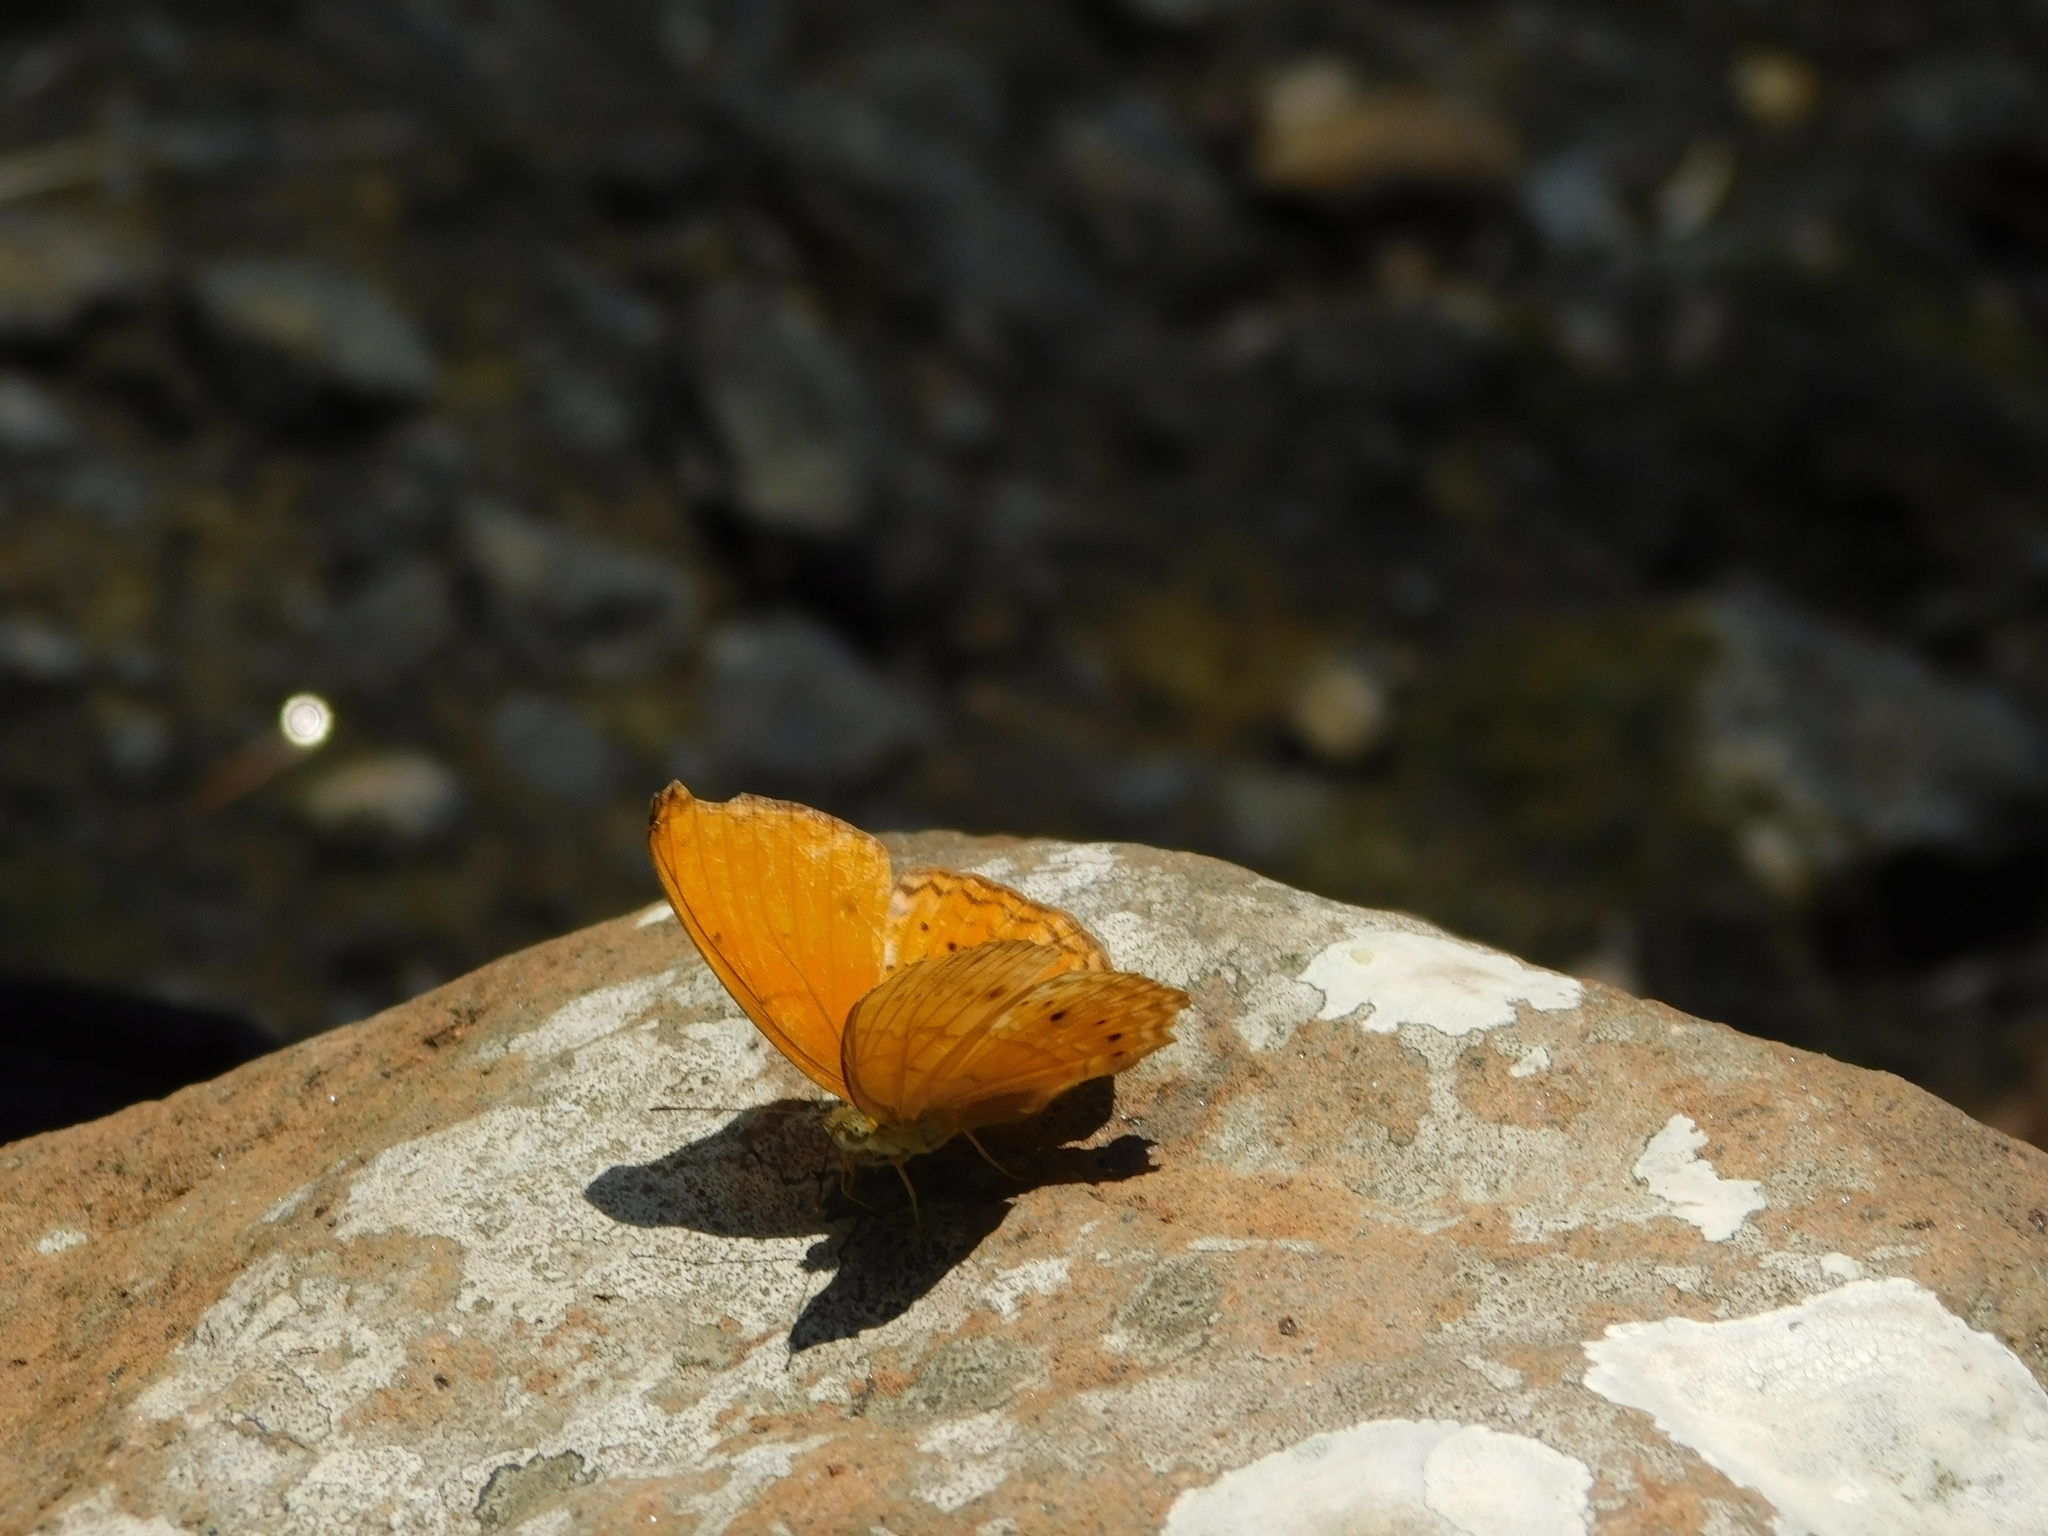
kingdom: Animalia
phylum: Arthropoda
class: Insecta
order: Lepidoptera
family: Nymphalidae
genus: Cirrochroa
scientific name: Cirrochroa tyche
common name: Common yeoman
